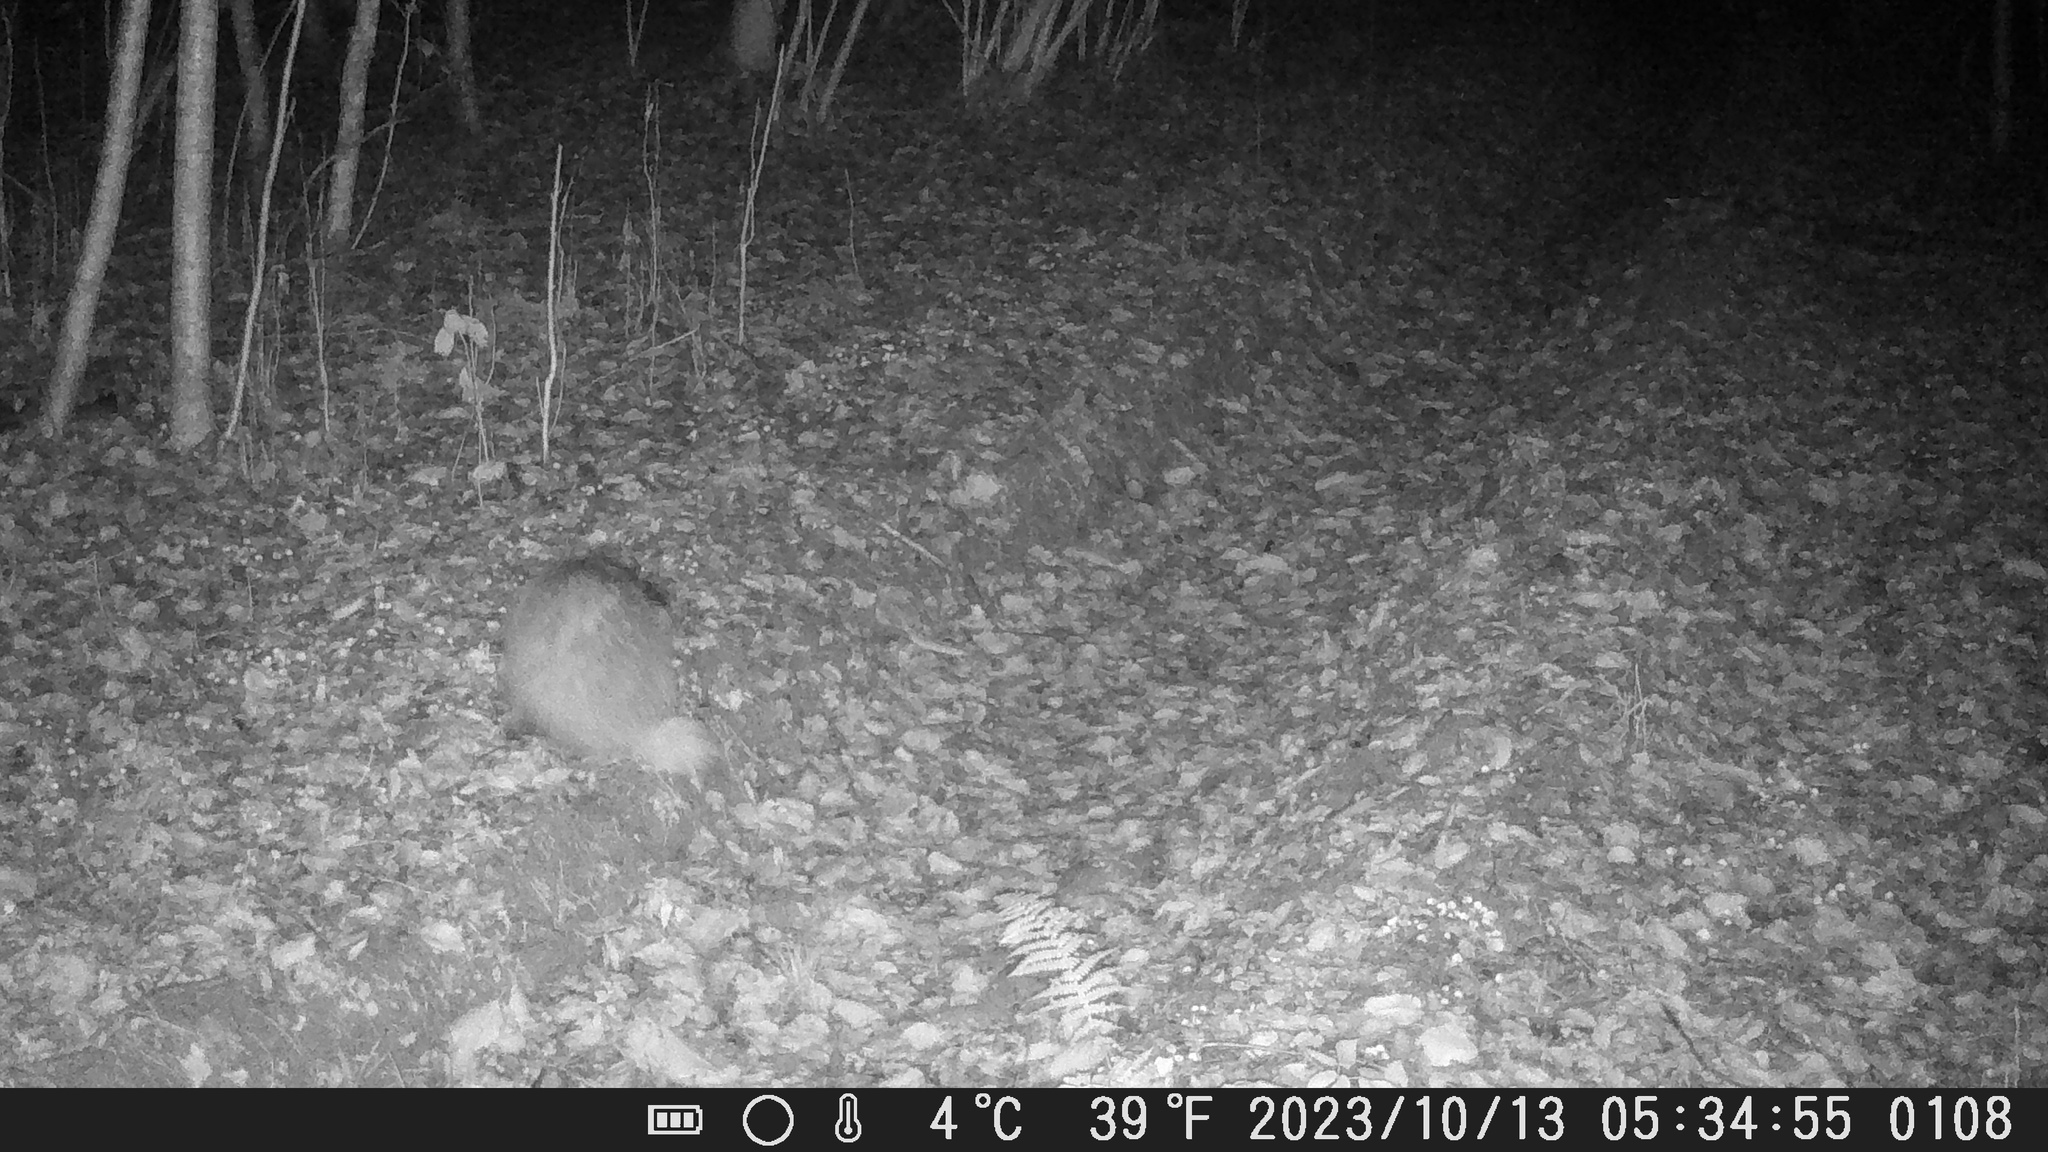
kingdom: Animalia
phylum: Chordata
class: Mammalia
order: Carnivora
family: Mustelidae
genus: Meles
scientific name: Meles meles
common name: Eurasian badger
